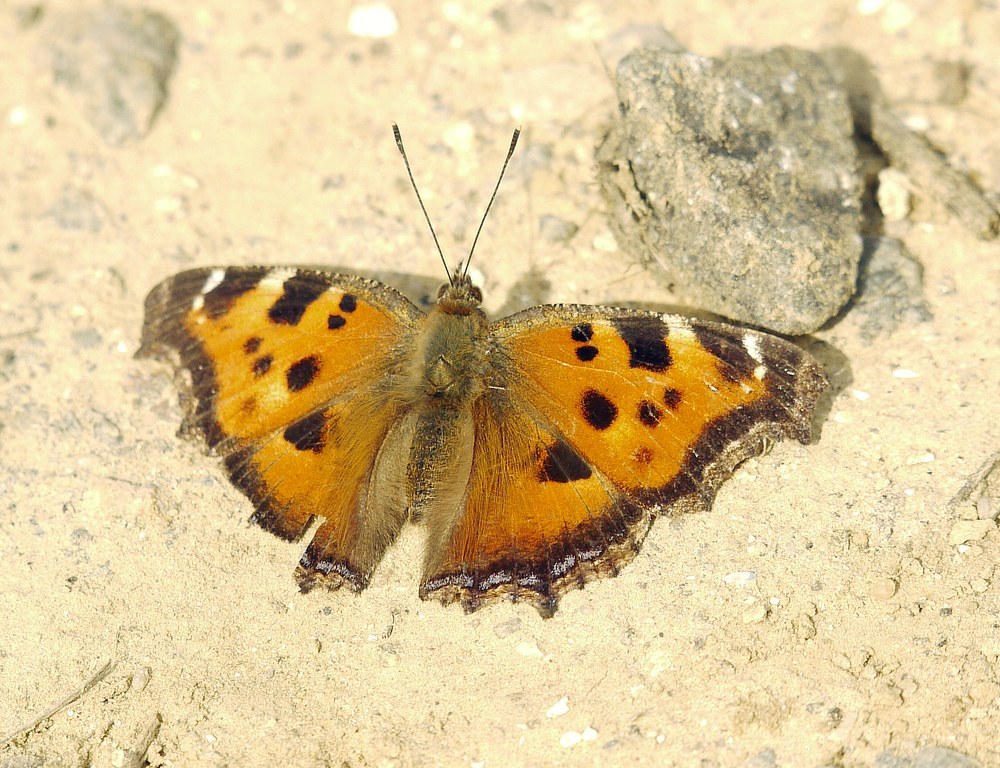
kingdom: Animalia
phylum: Arthropoda
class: Insecta
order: Lepidoptera
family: Nymphalidae
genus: Nymphalis
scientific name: Nymphalis xanthomelas
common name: Scarce tortoiseshell
